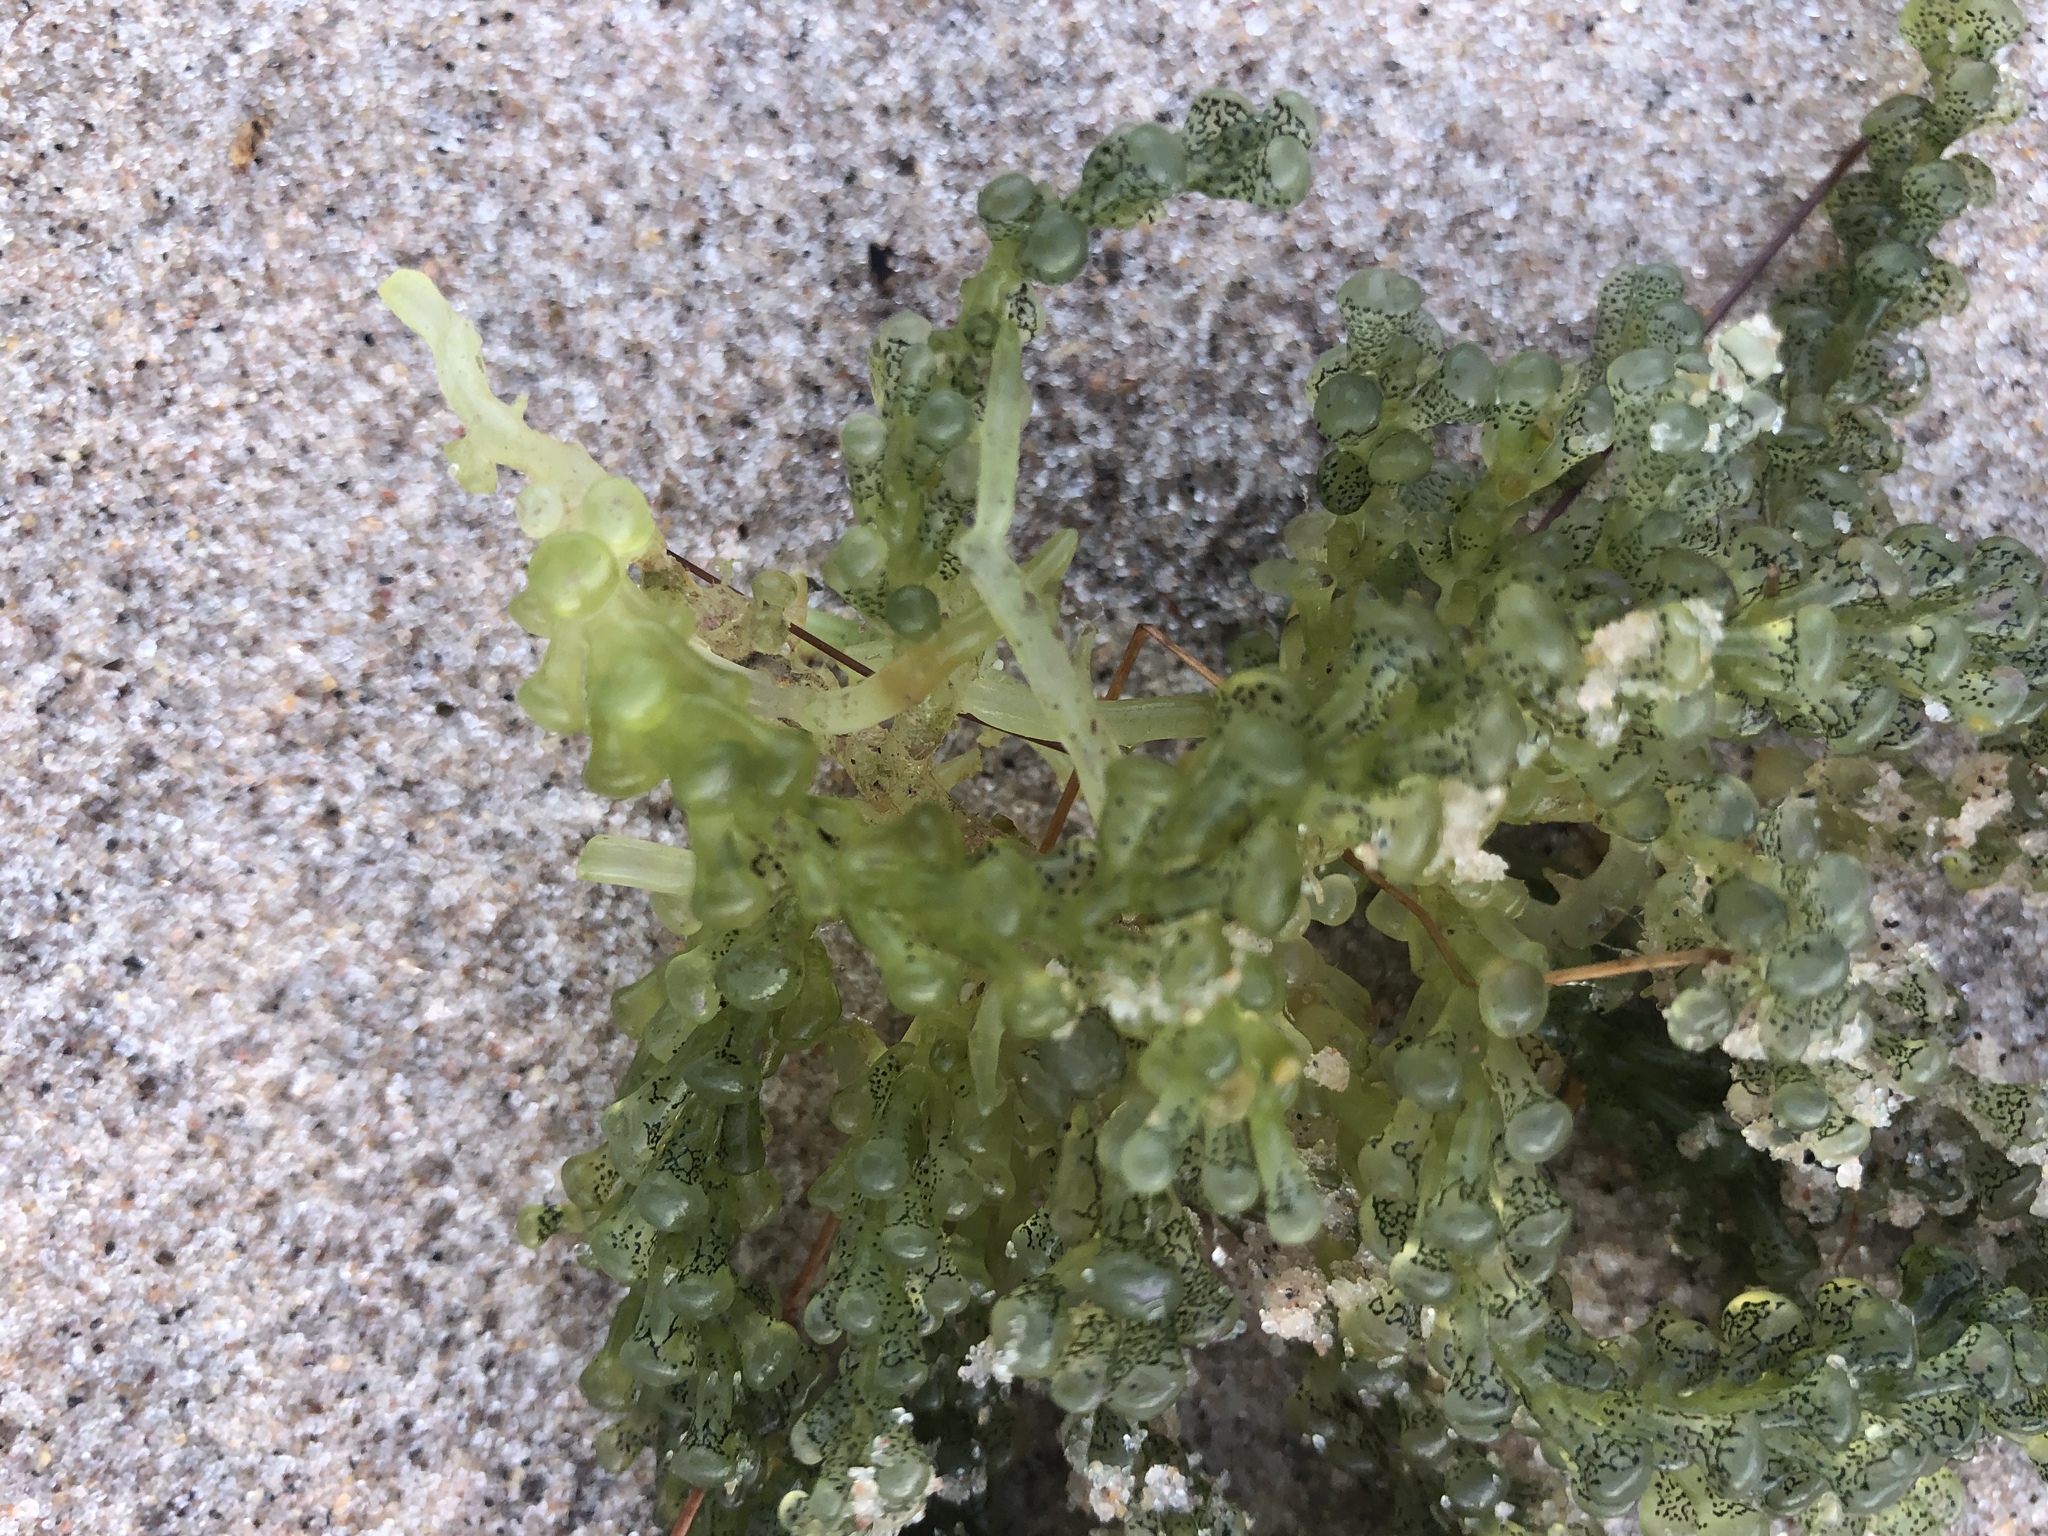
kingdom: Plantae
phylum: Chlorophyta
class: Ulvophyceae
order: Bryopsidales
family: Caulerpaceae
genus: Caulerpa
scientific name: Caulerpa racemosa
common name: Green grape algae
